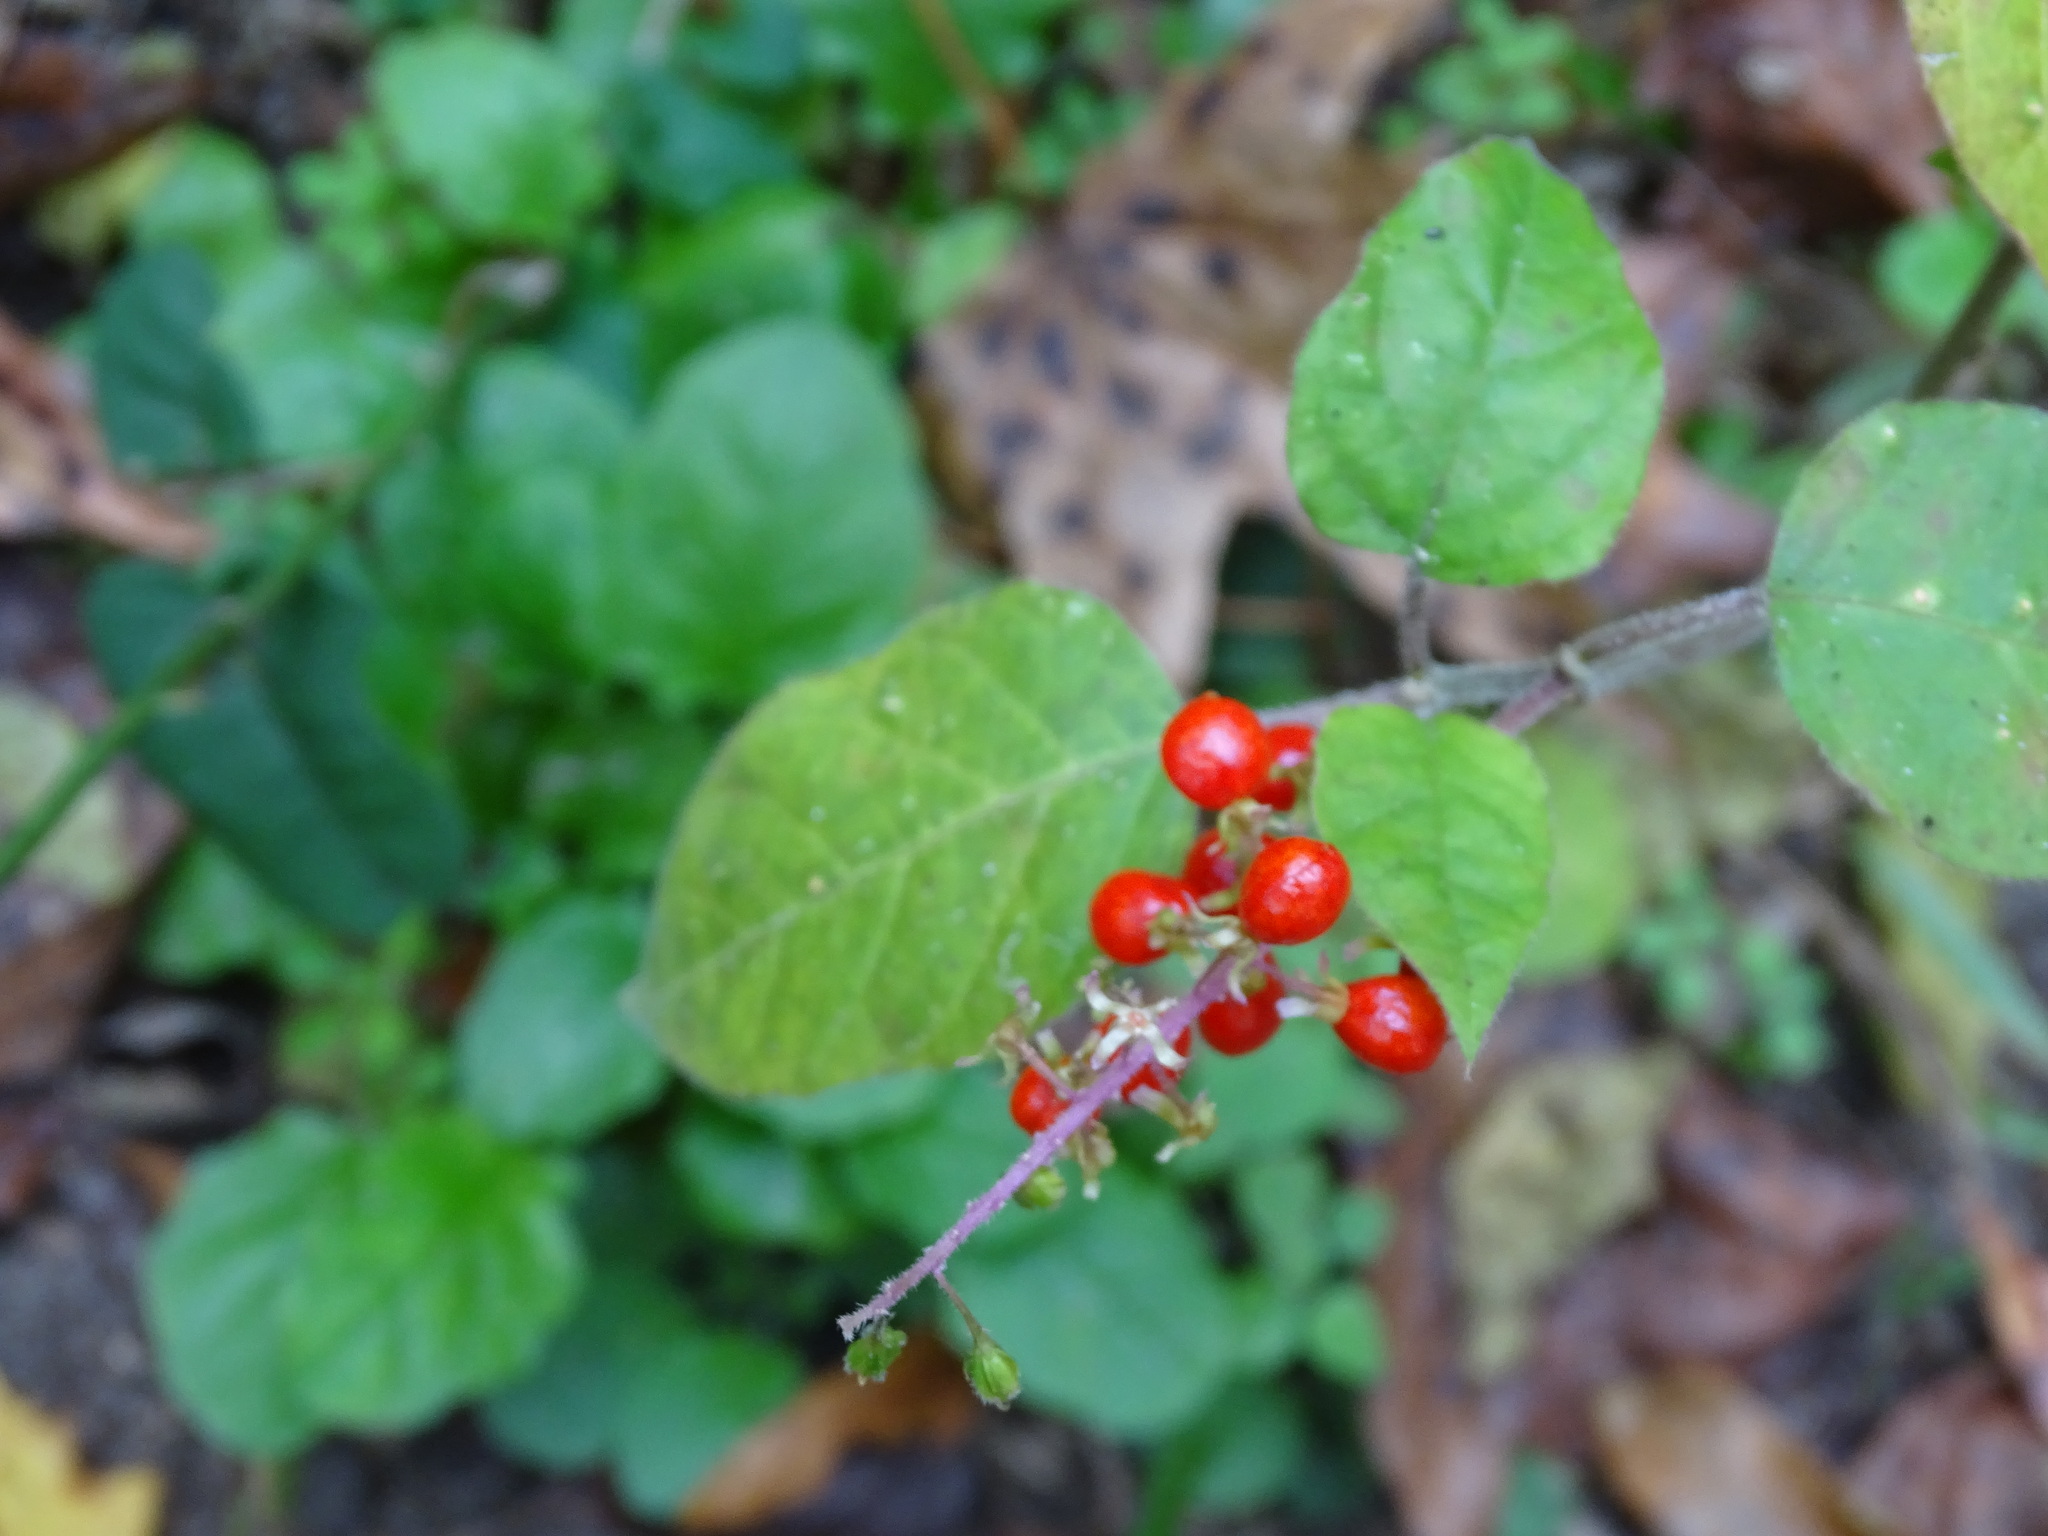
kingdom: Plantae
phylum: Tracheophyta
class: Magnoliopsida
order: Caryophyllales
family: Phytolaccaceae
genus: Rivina
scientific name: Rivina humilis
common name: Rougeplant
